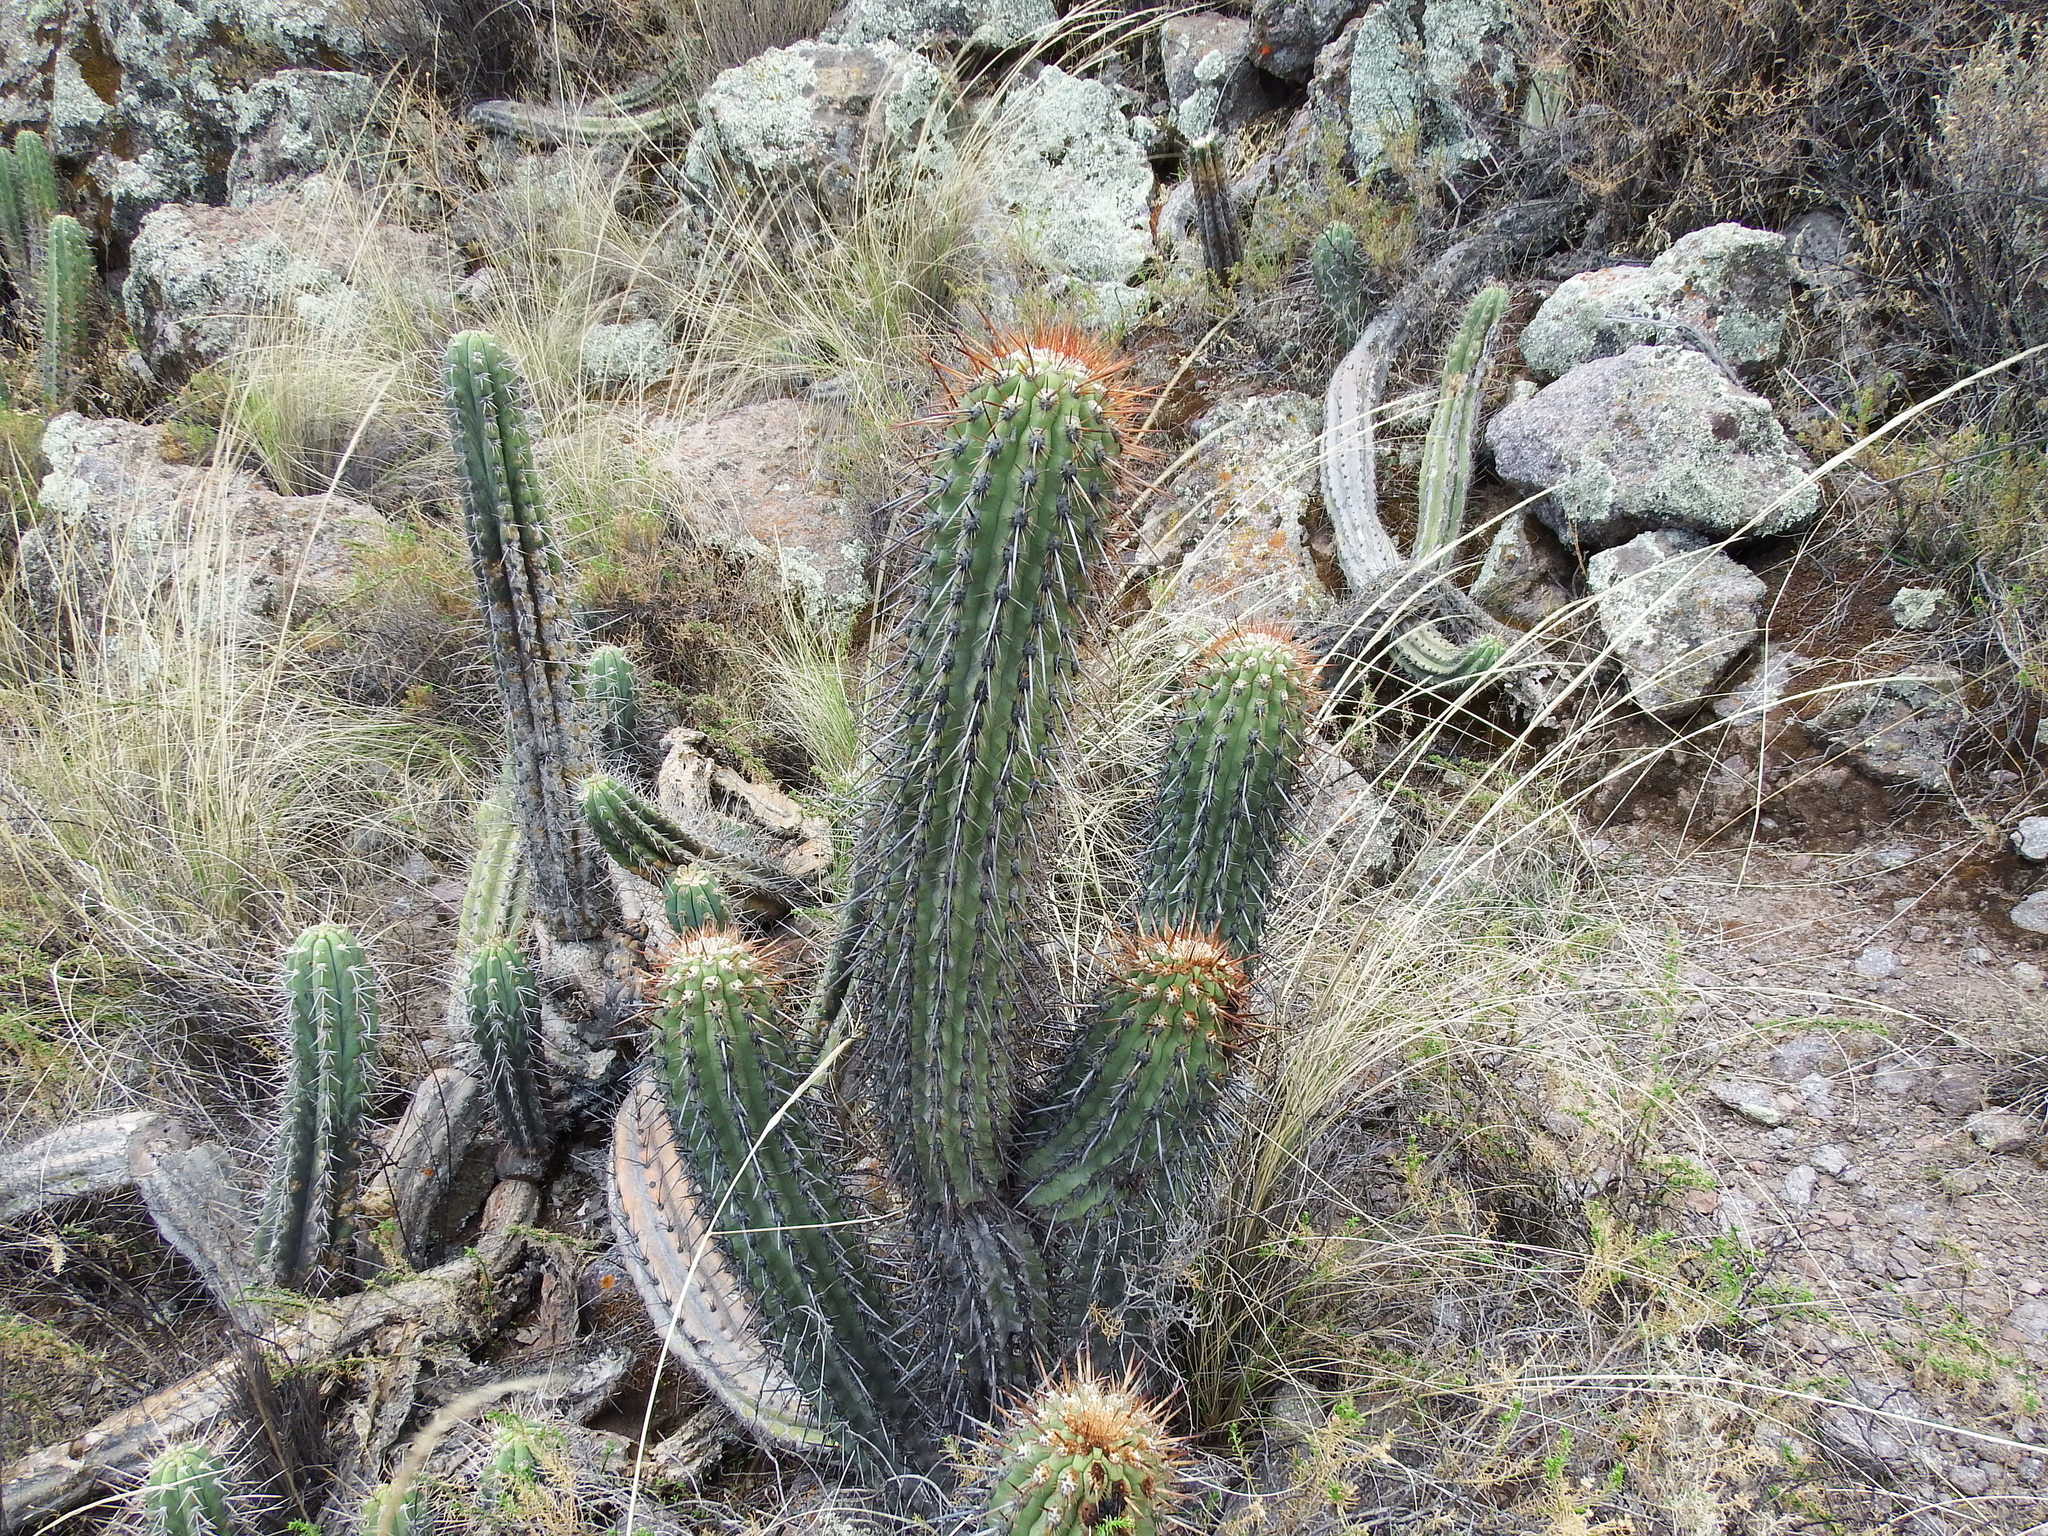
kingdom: Plantae
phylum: Tracheophyta
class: Magnoliopsida
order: Caryophyllales
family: Cactaceae
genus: Weberbauerocereus
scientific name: Weberbauerocereus weberbaueri
